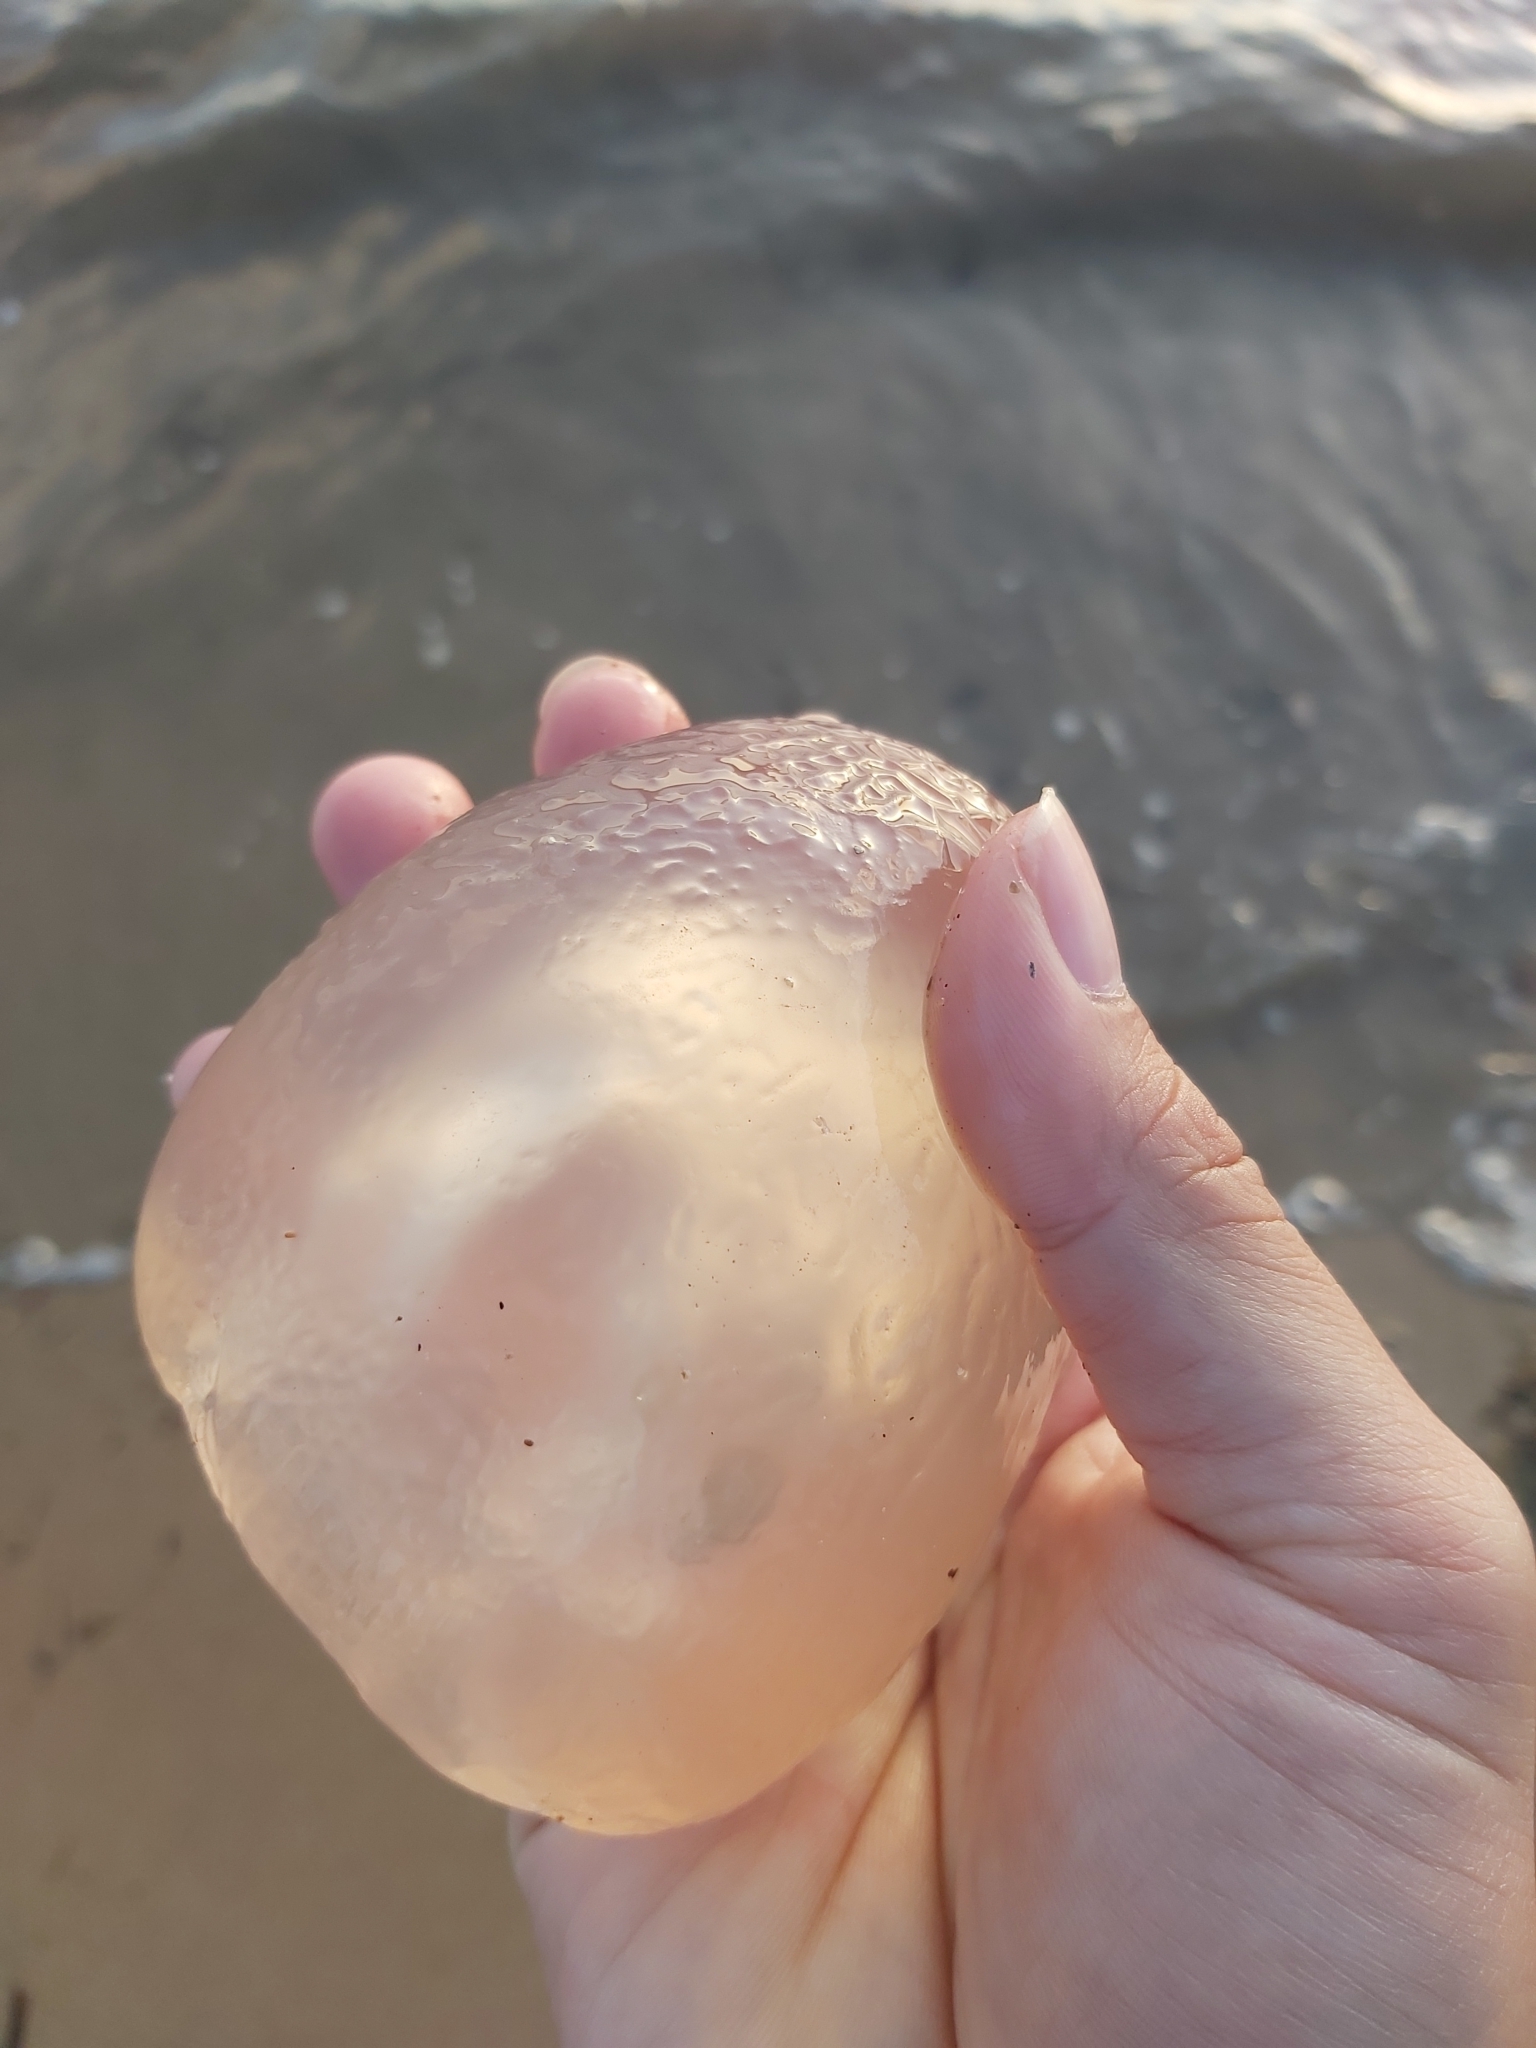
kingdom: Animalia
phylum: Cnidaria
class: Scyphozoa
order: Rhizostomeae
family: Catostylidae
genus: Catostylus
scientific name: Catostylus mosaicus
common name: Blue blubber
